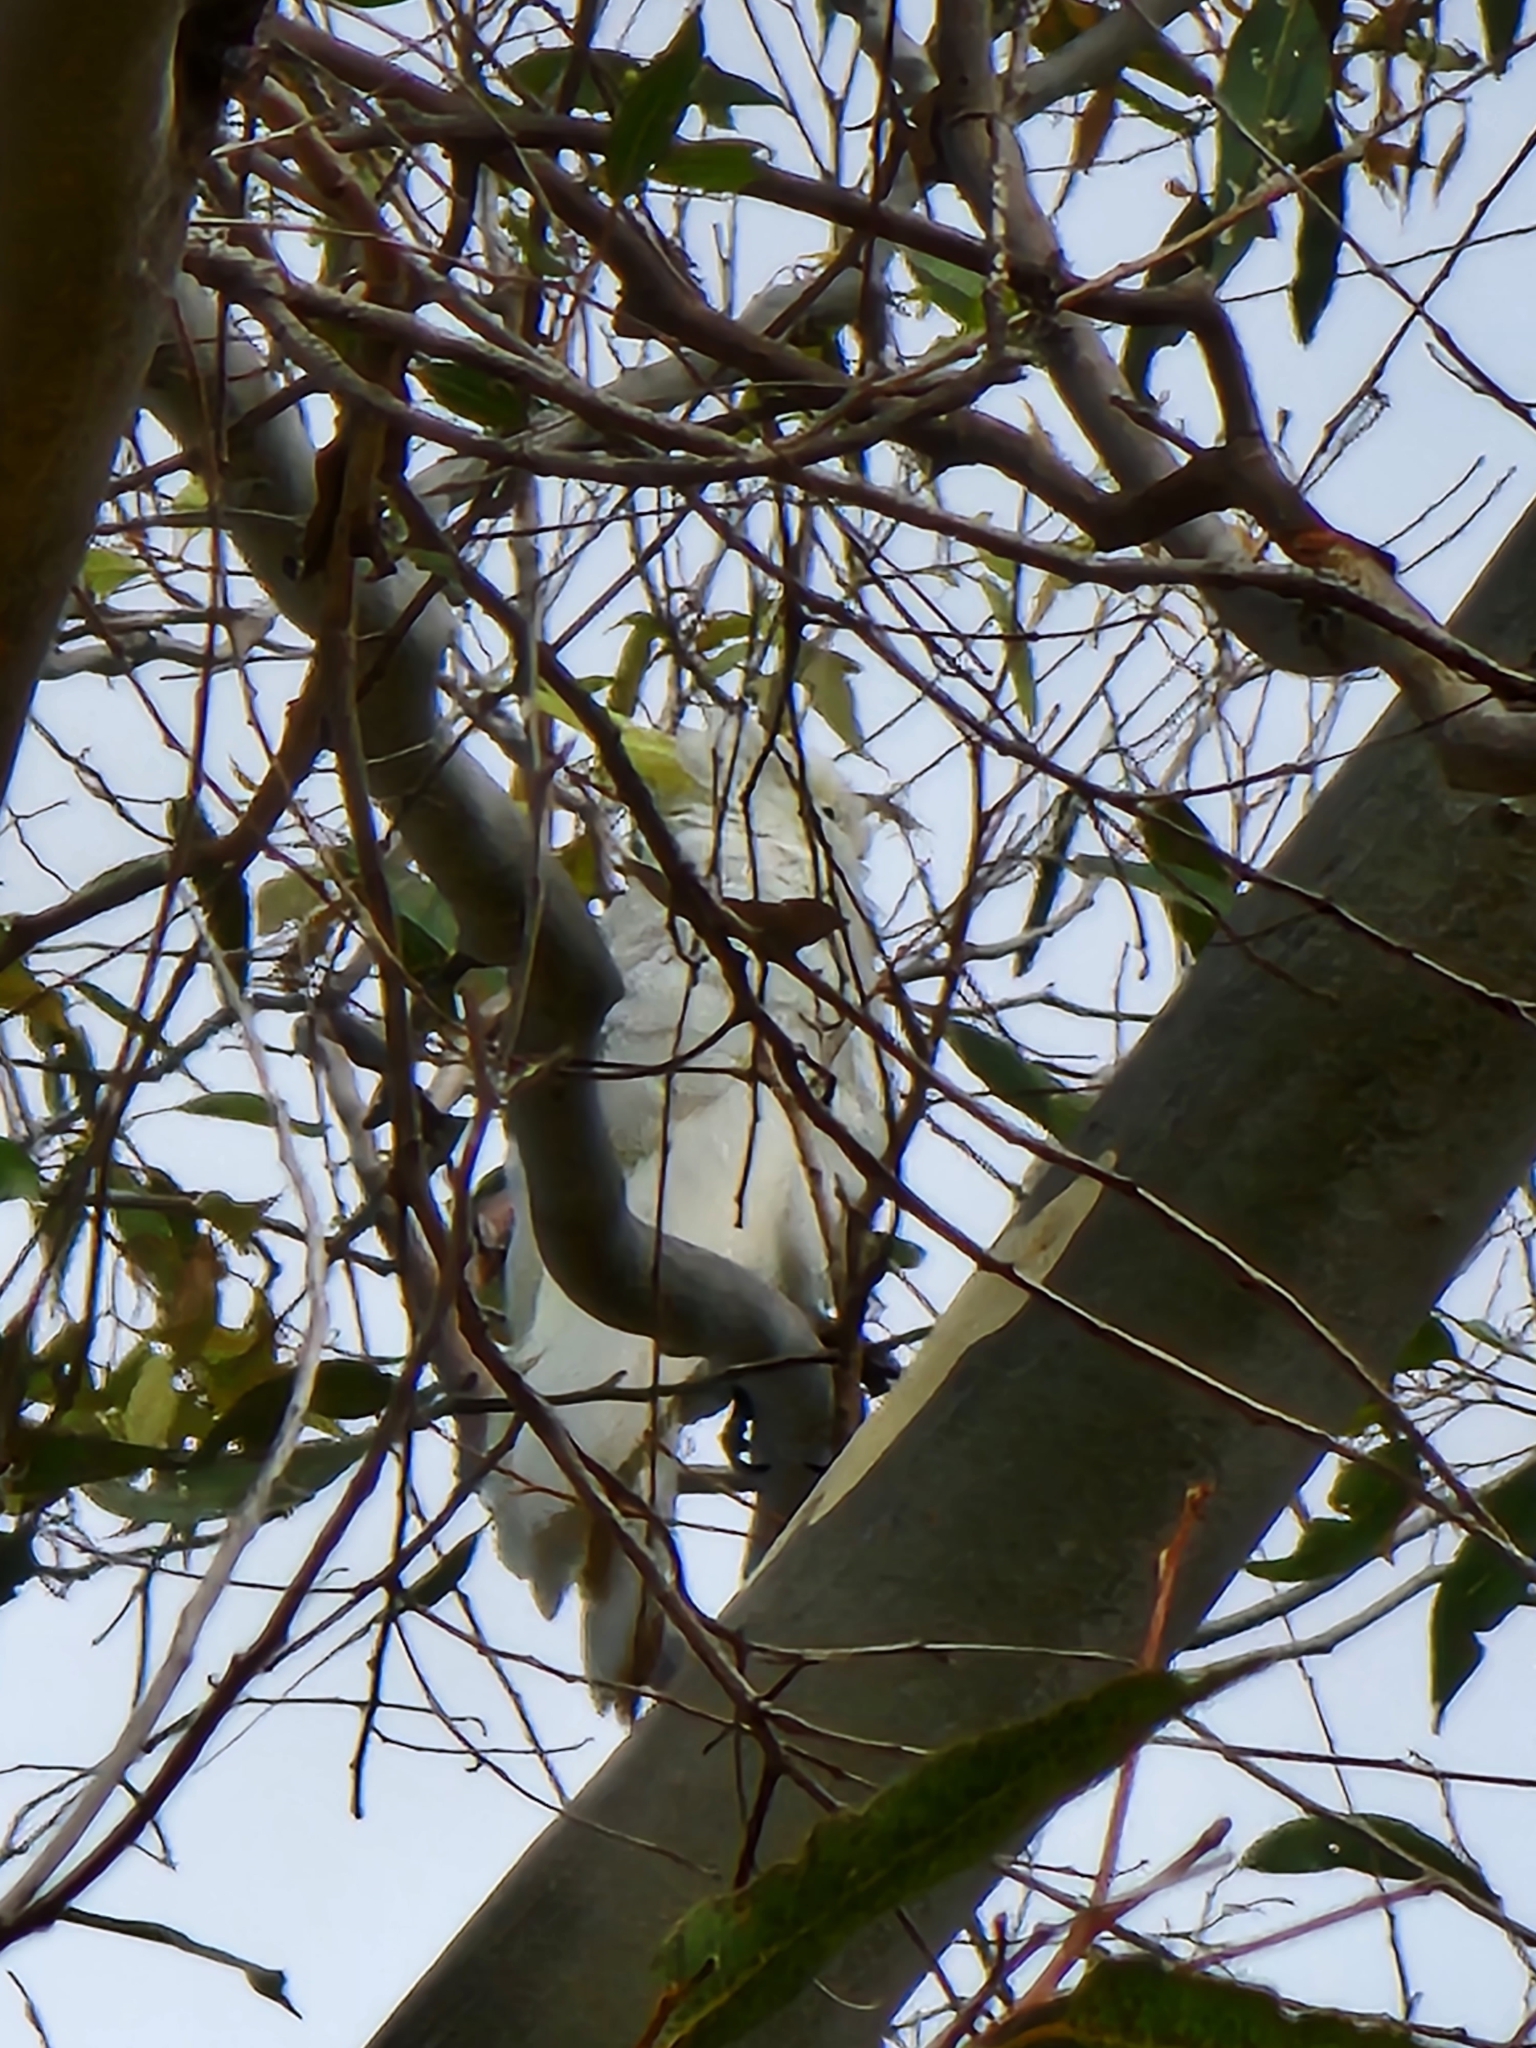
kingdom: Animalia
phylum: Chordata
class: Aves
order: Psittaciformes
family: Psittacidae
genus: Cacatua
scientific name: Cacatua galerita
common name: Sulphur-crested cockatoo
